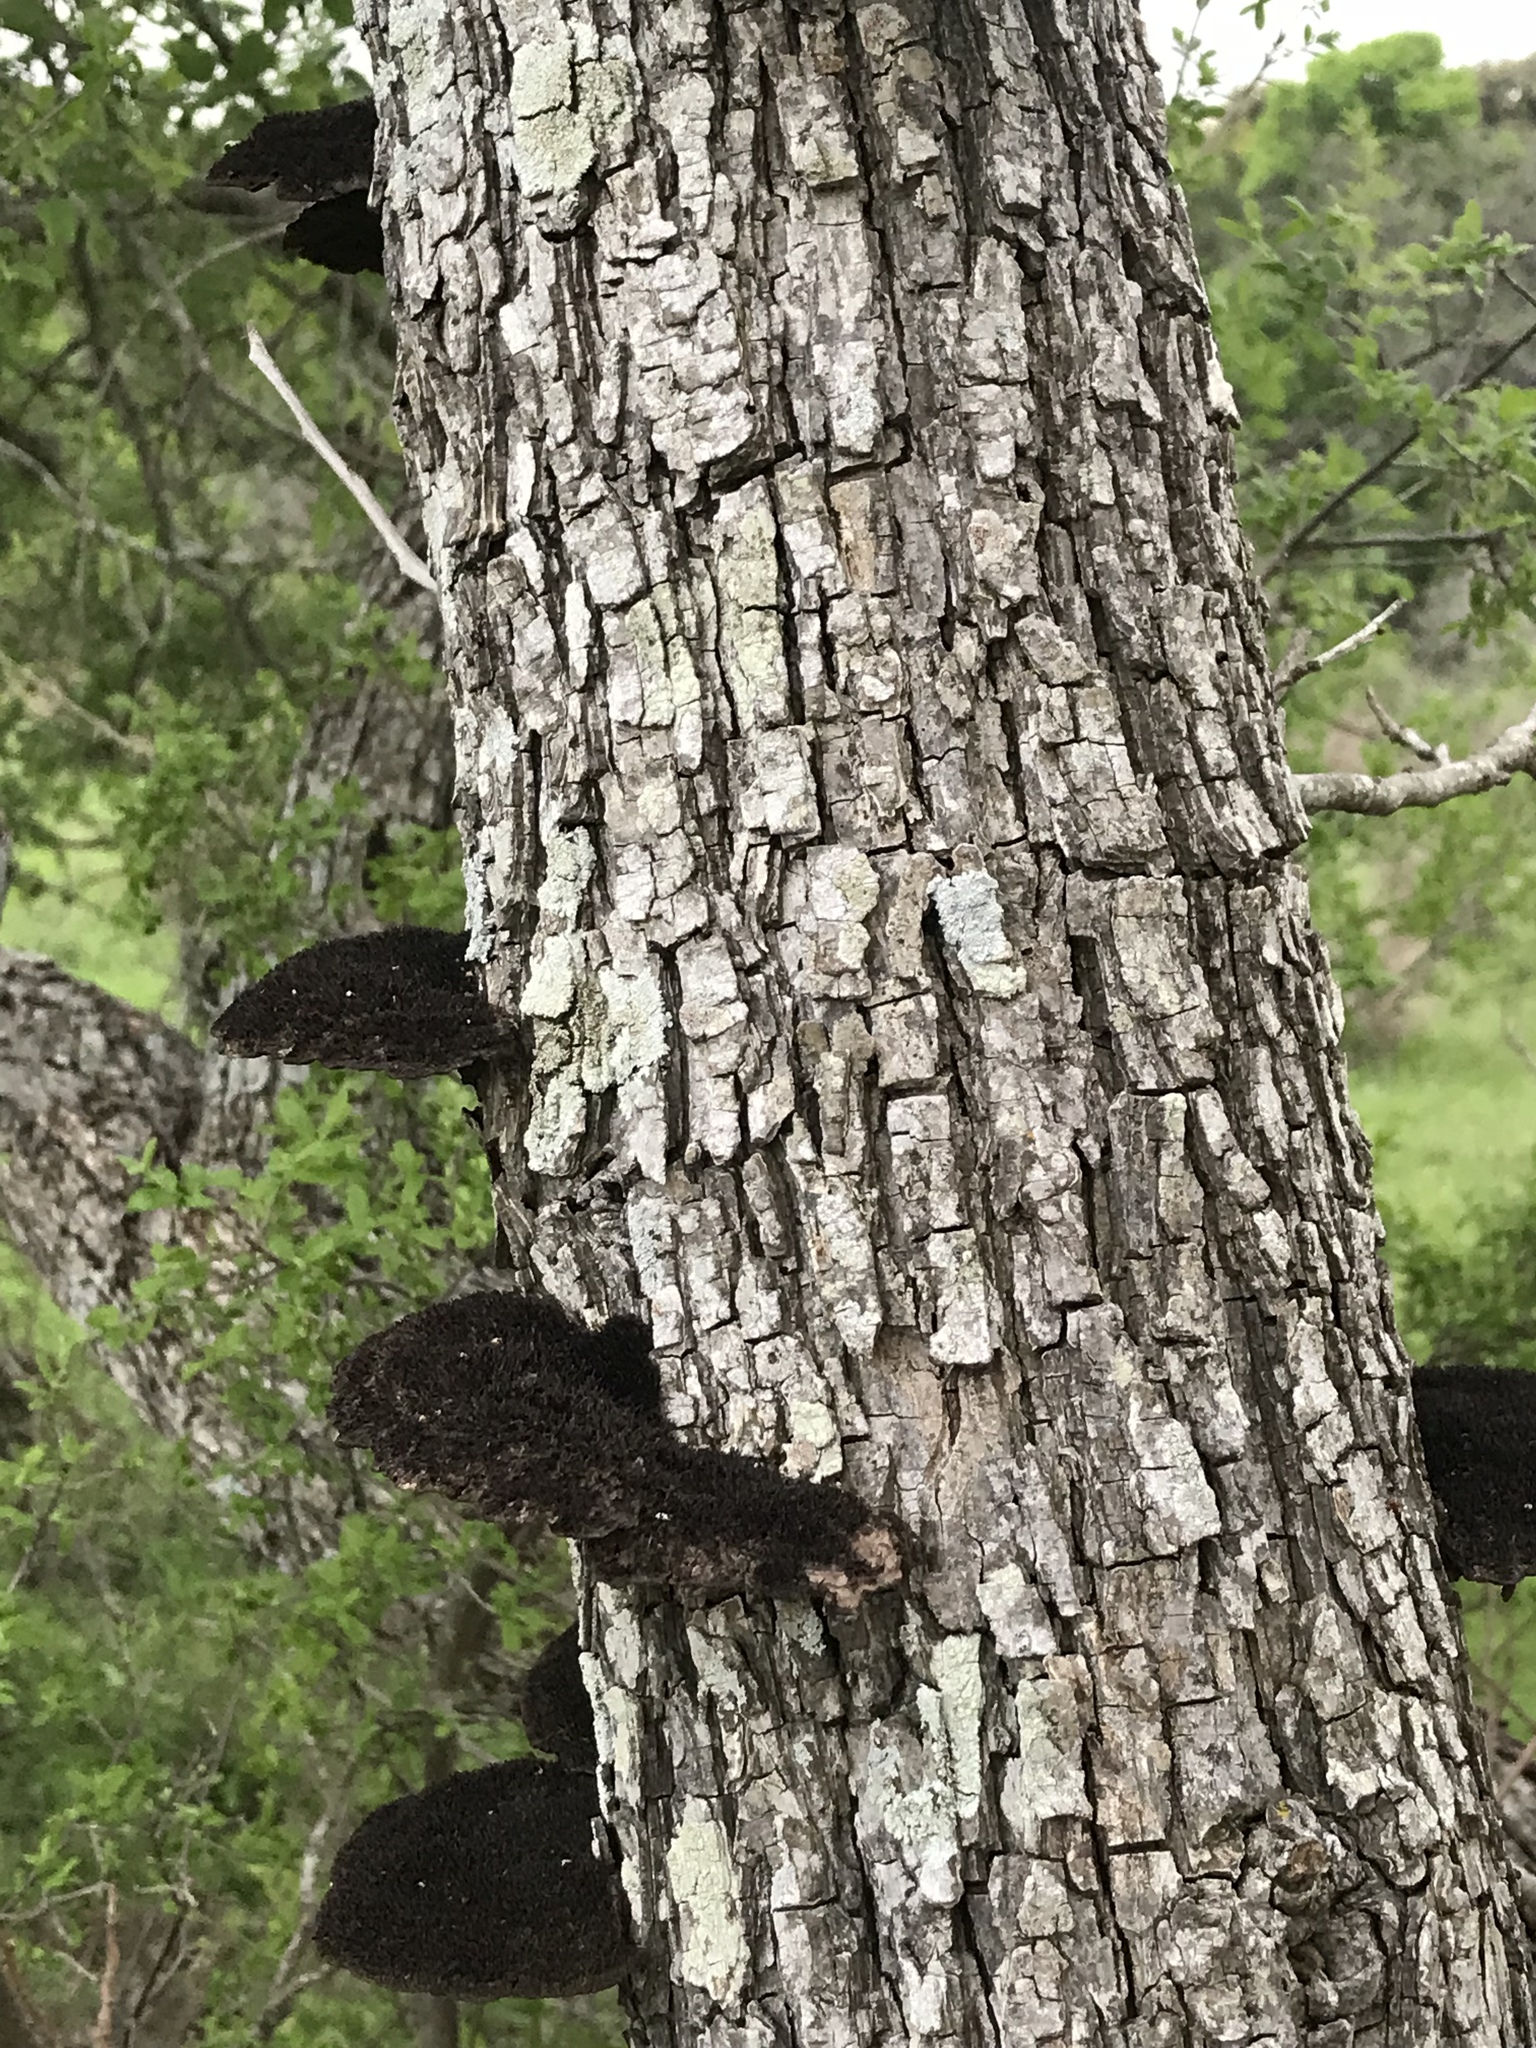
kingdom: Fungi
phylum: Basidiomycota
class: Agaricomycetes
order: Polyporales
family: Cerrenaceae
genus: Cerrena
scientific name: Cerrena hydnoides
